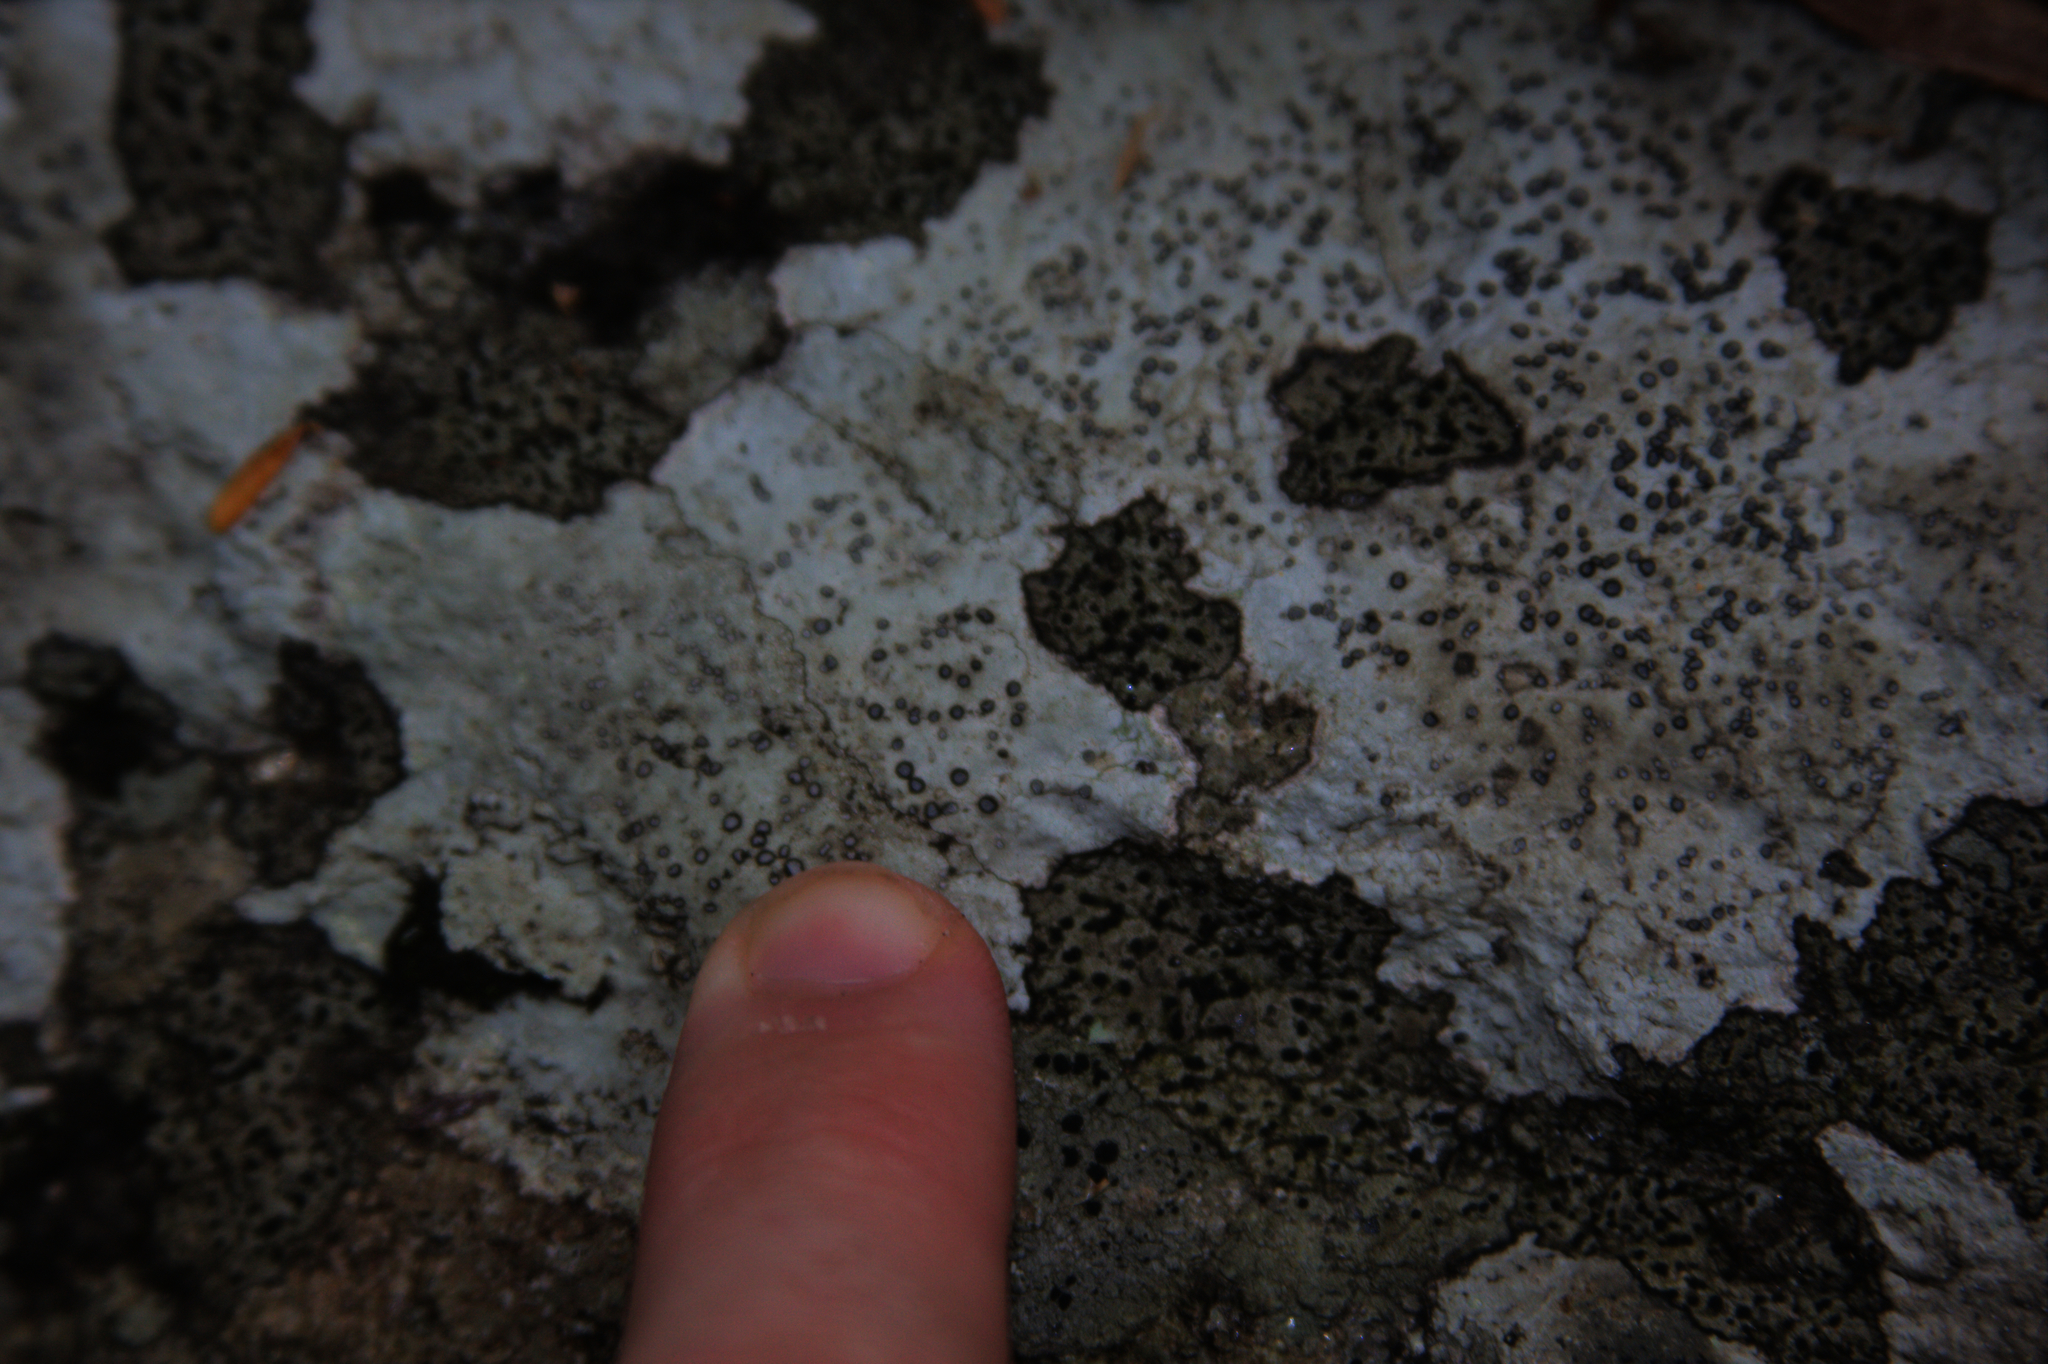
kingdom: Fungi
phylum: Ascomycota
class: Lecanoromycetes
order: Lecideales
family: Lecideaceae
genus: Porpidia
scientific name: Porpidia albocaerulescens
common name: Smokey-eyed boulder lichen
